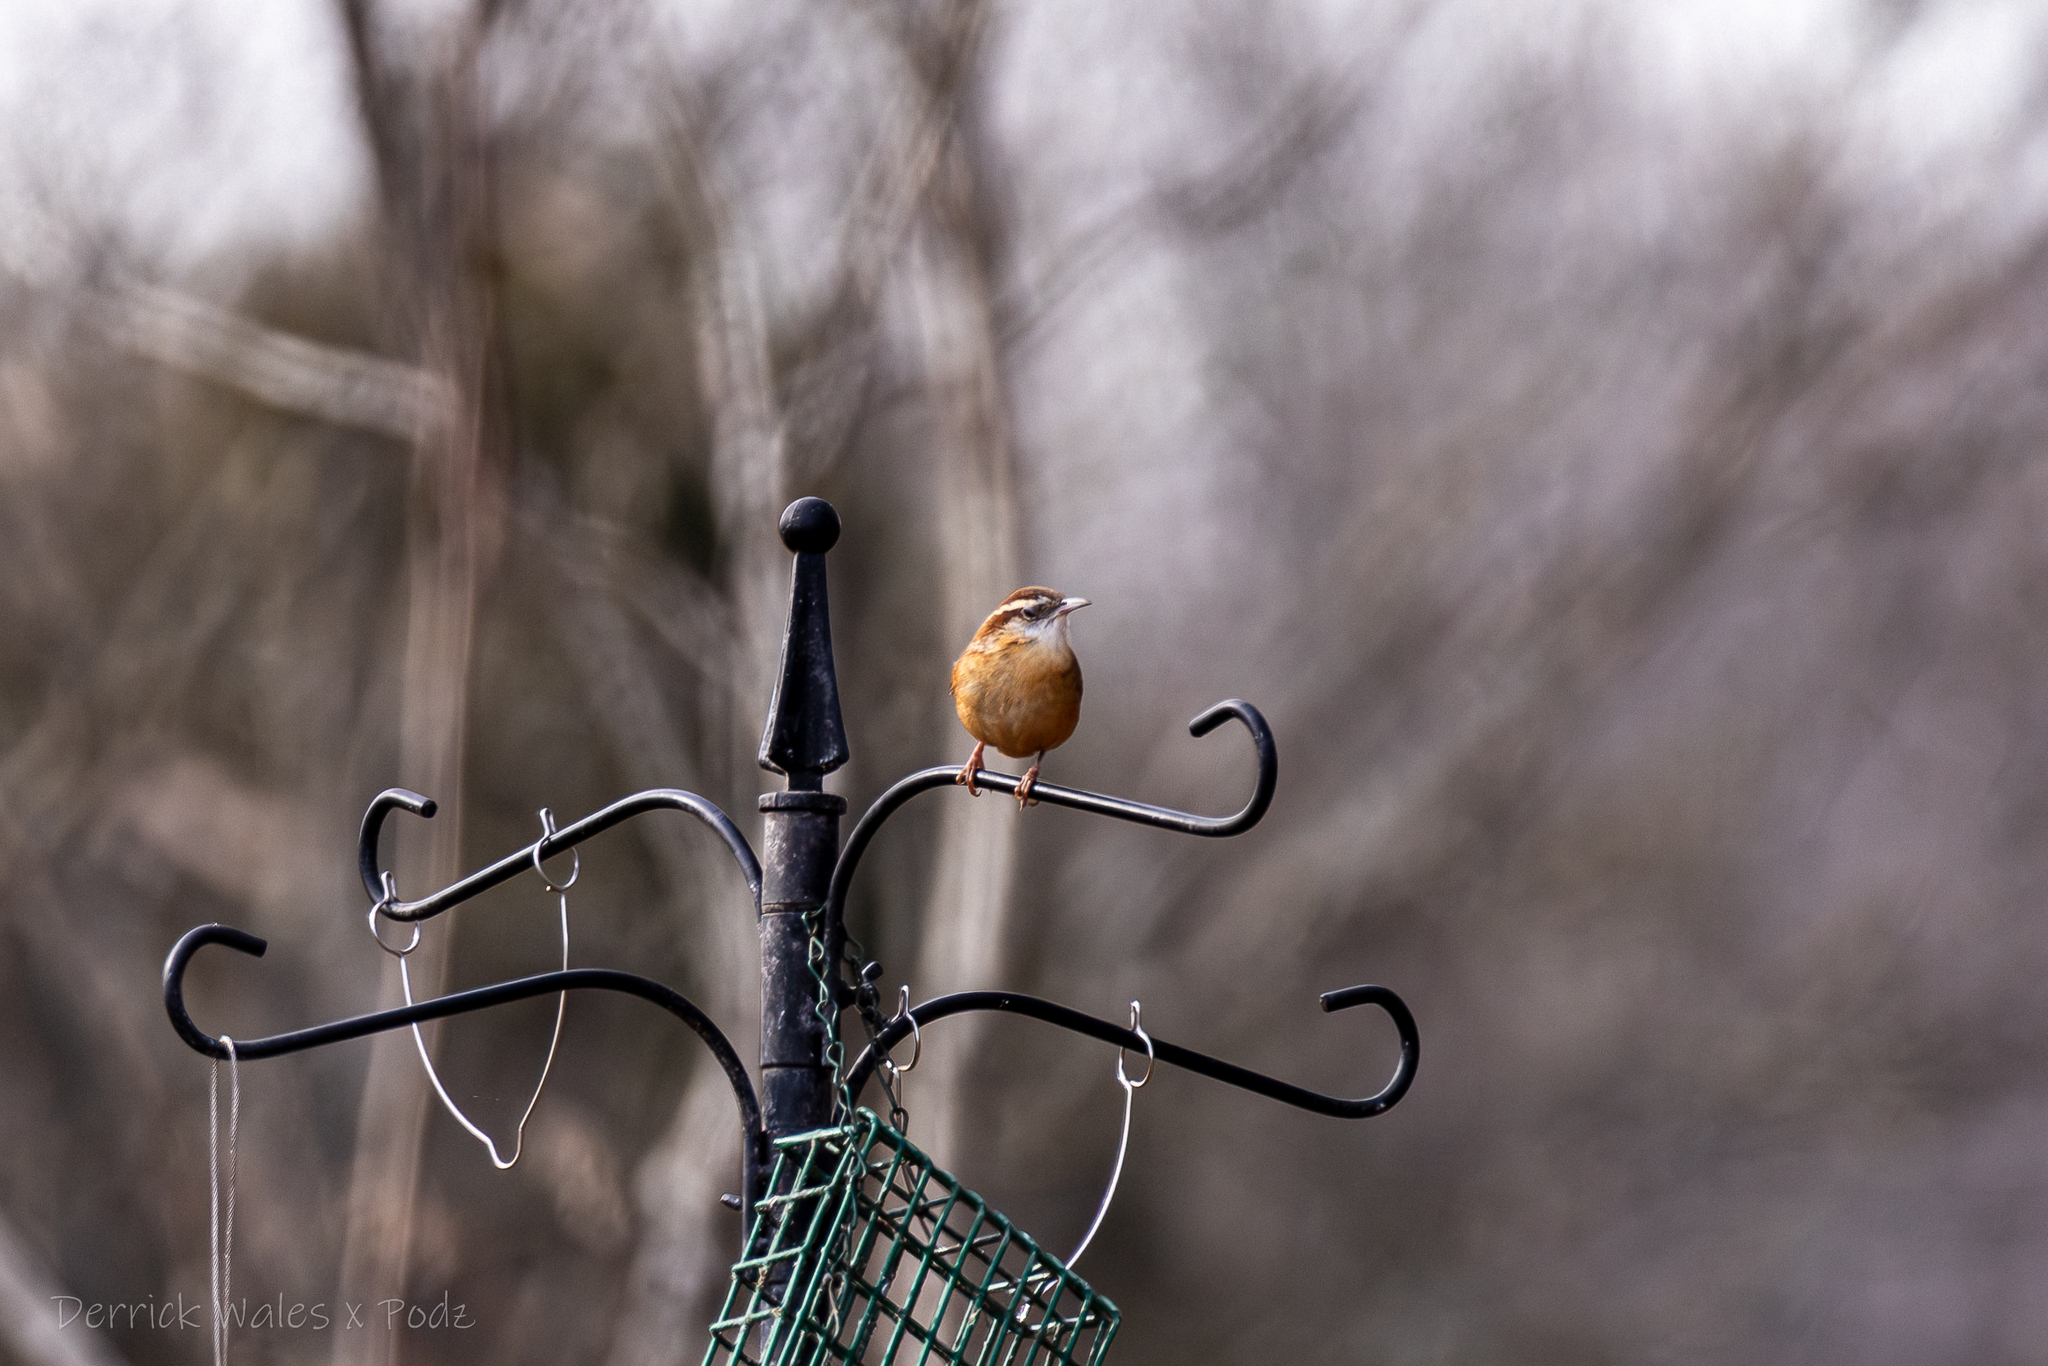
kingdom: Animalia
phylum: Chordata
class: Aves
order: Passeriformes
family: Troglodytidae
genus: Thryothorus
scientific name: Thryothorus ludovicianus
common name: Carolina wren
